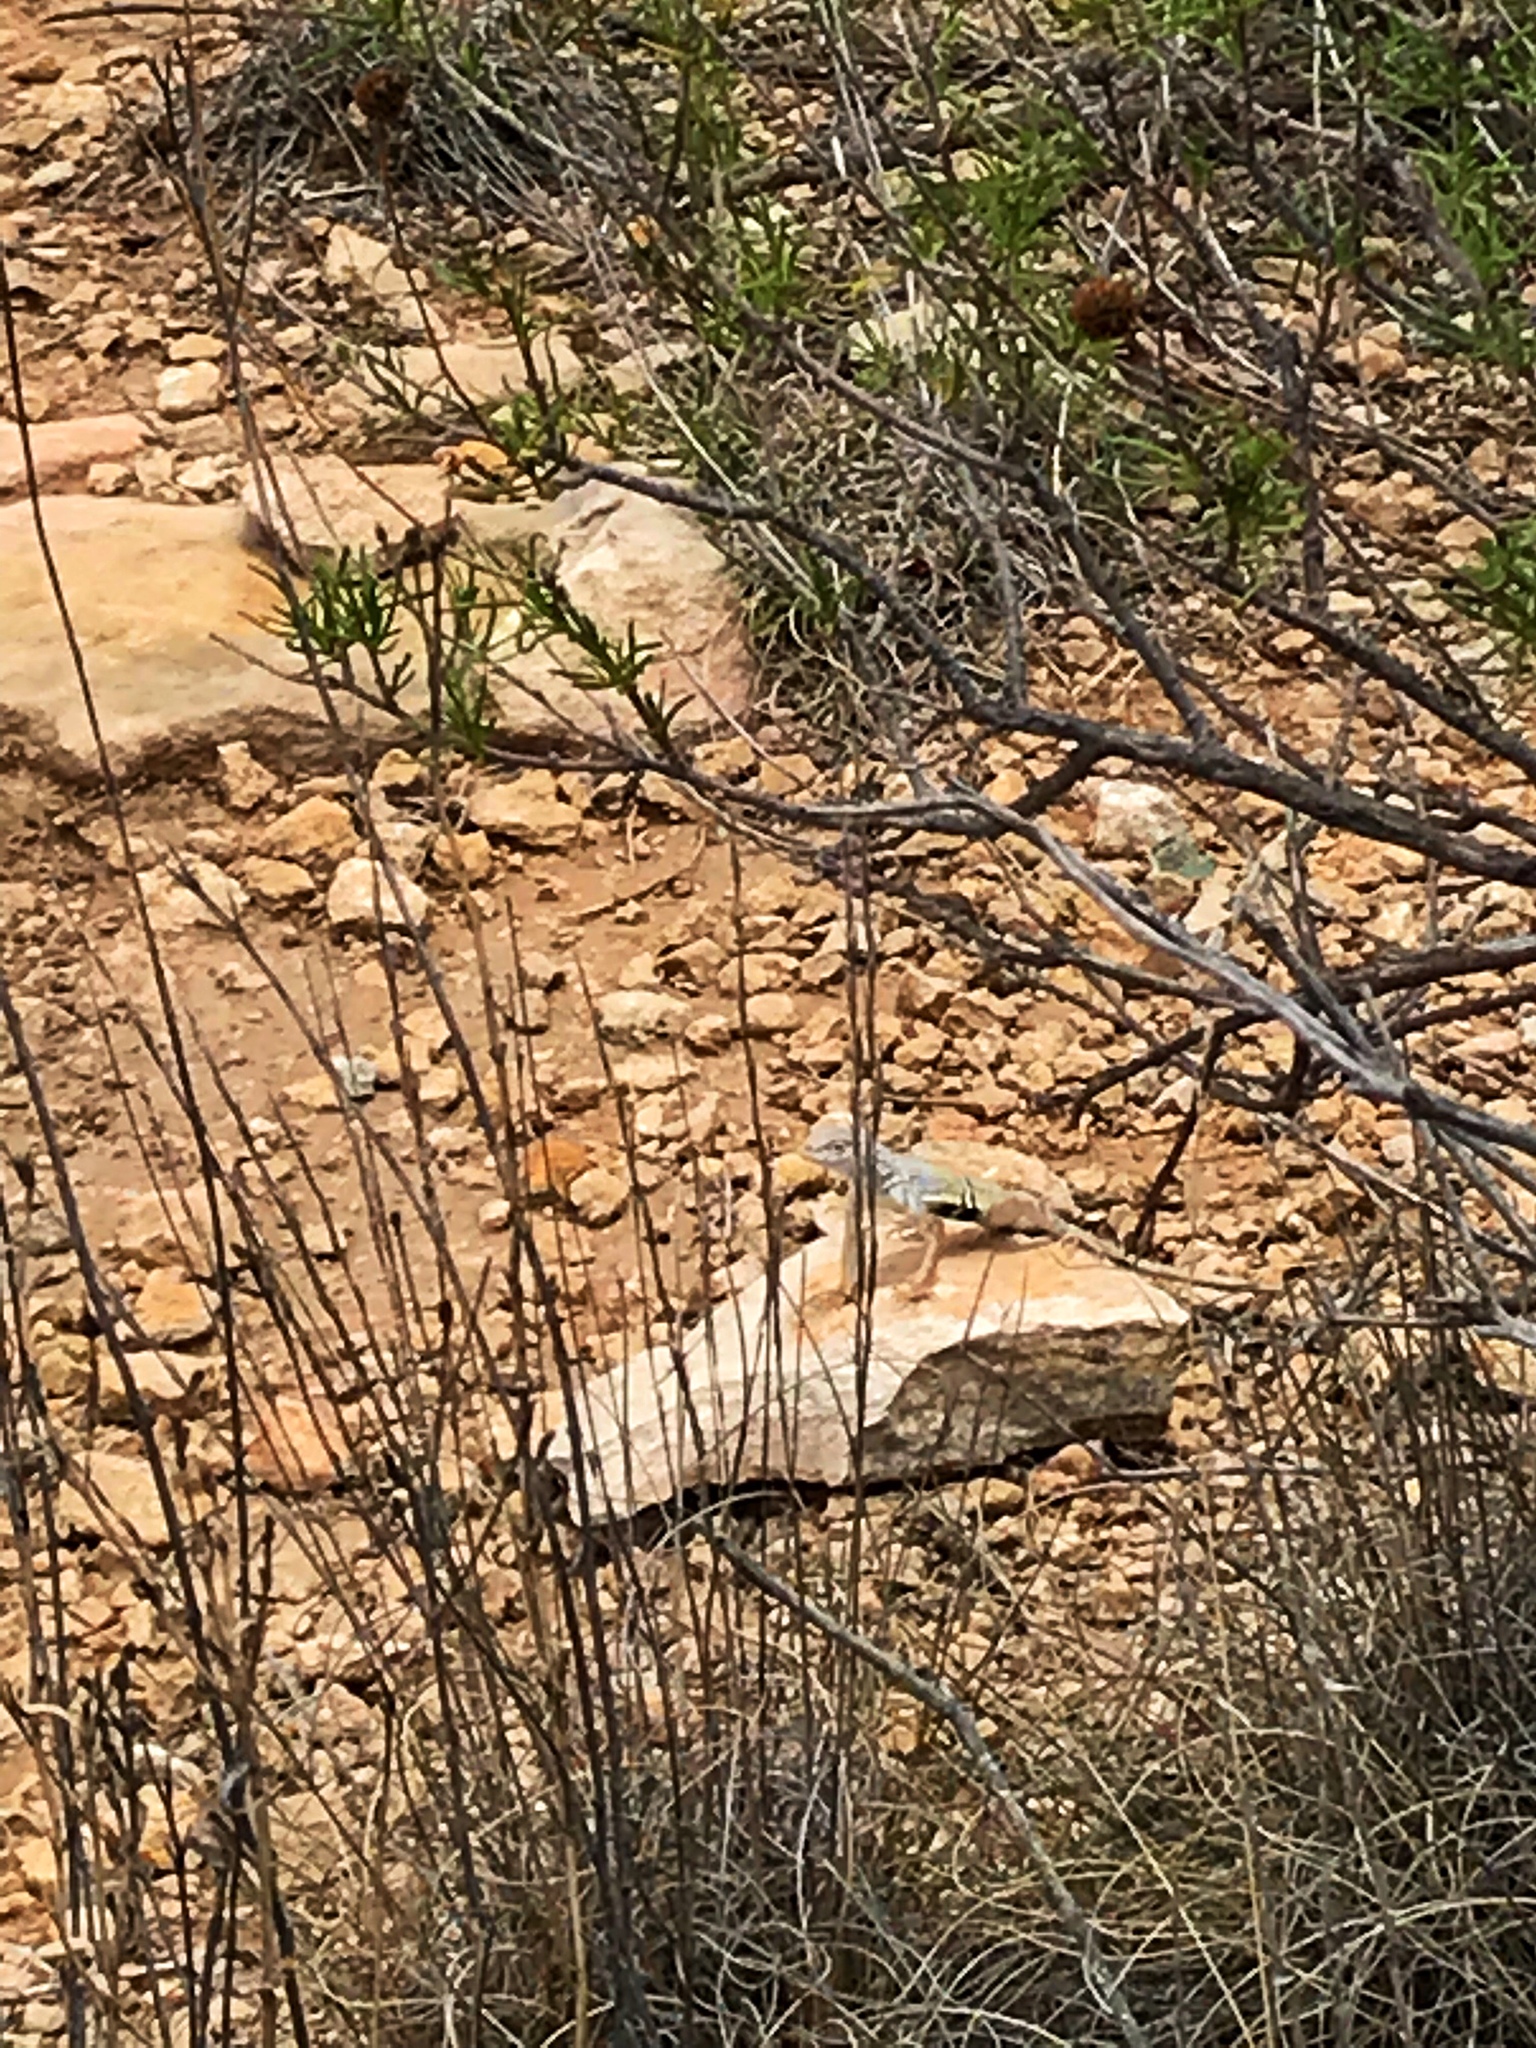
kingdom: Animalia
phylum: Chordata
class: Squamata
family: Phrynosomatidae
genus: Cophosaurus
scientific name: Cophosaurus texanus
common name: Greater earless lizard
